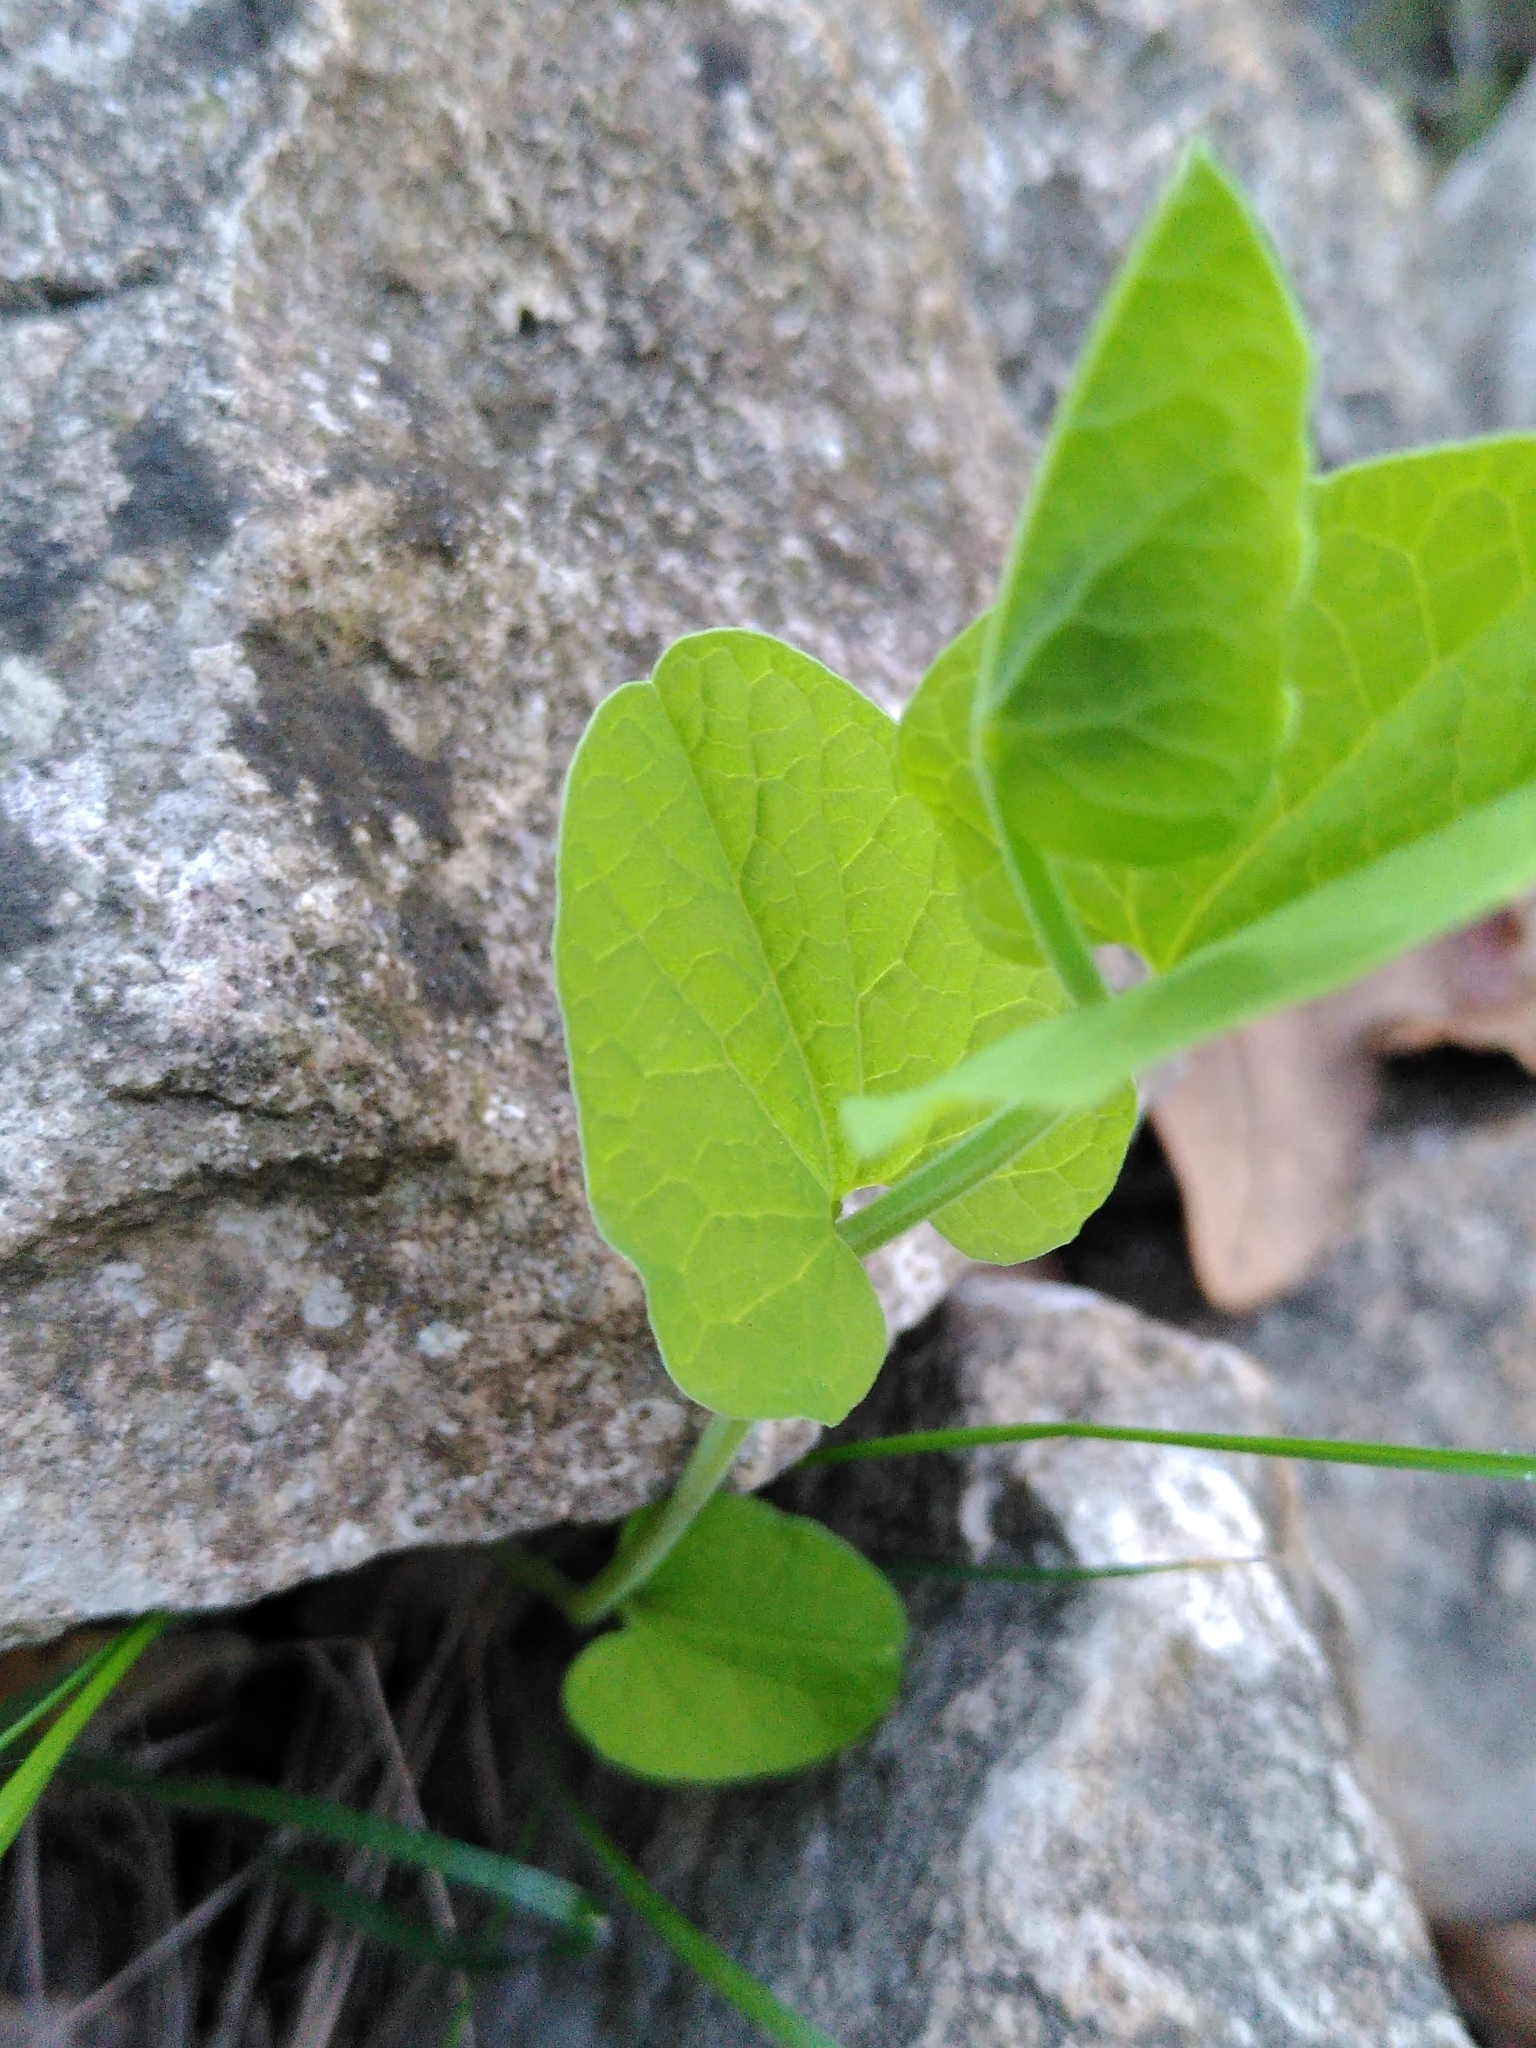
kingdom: Plantae
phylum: Tracheophyta
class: Magnoliopsida
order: Piperales
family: Aristolochiaceae
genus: Aristolochia
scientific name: Aristolochia rotunda
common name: Smearwort
